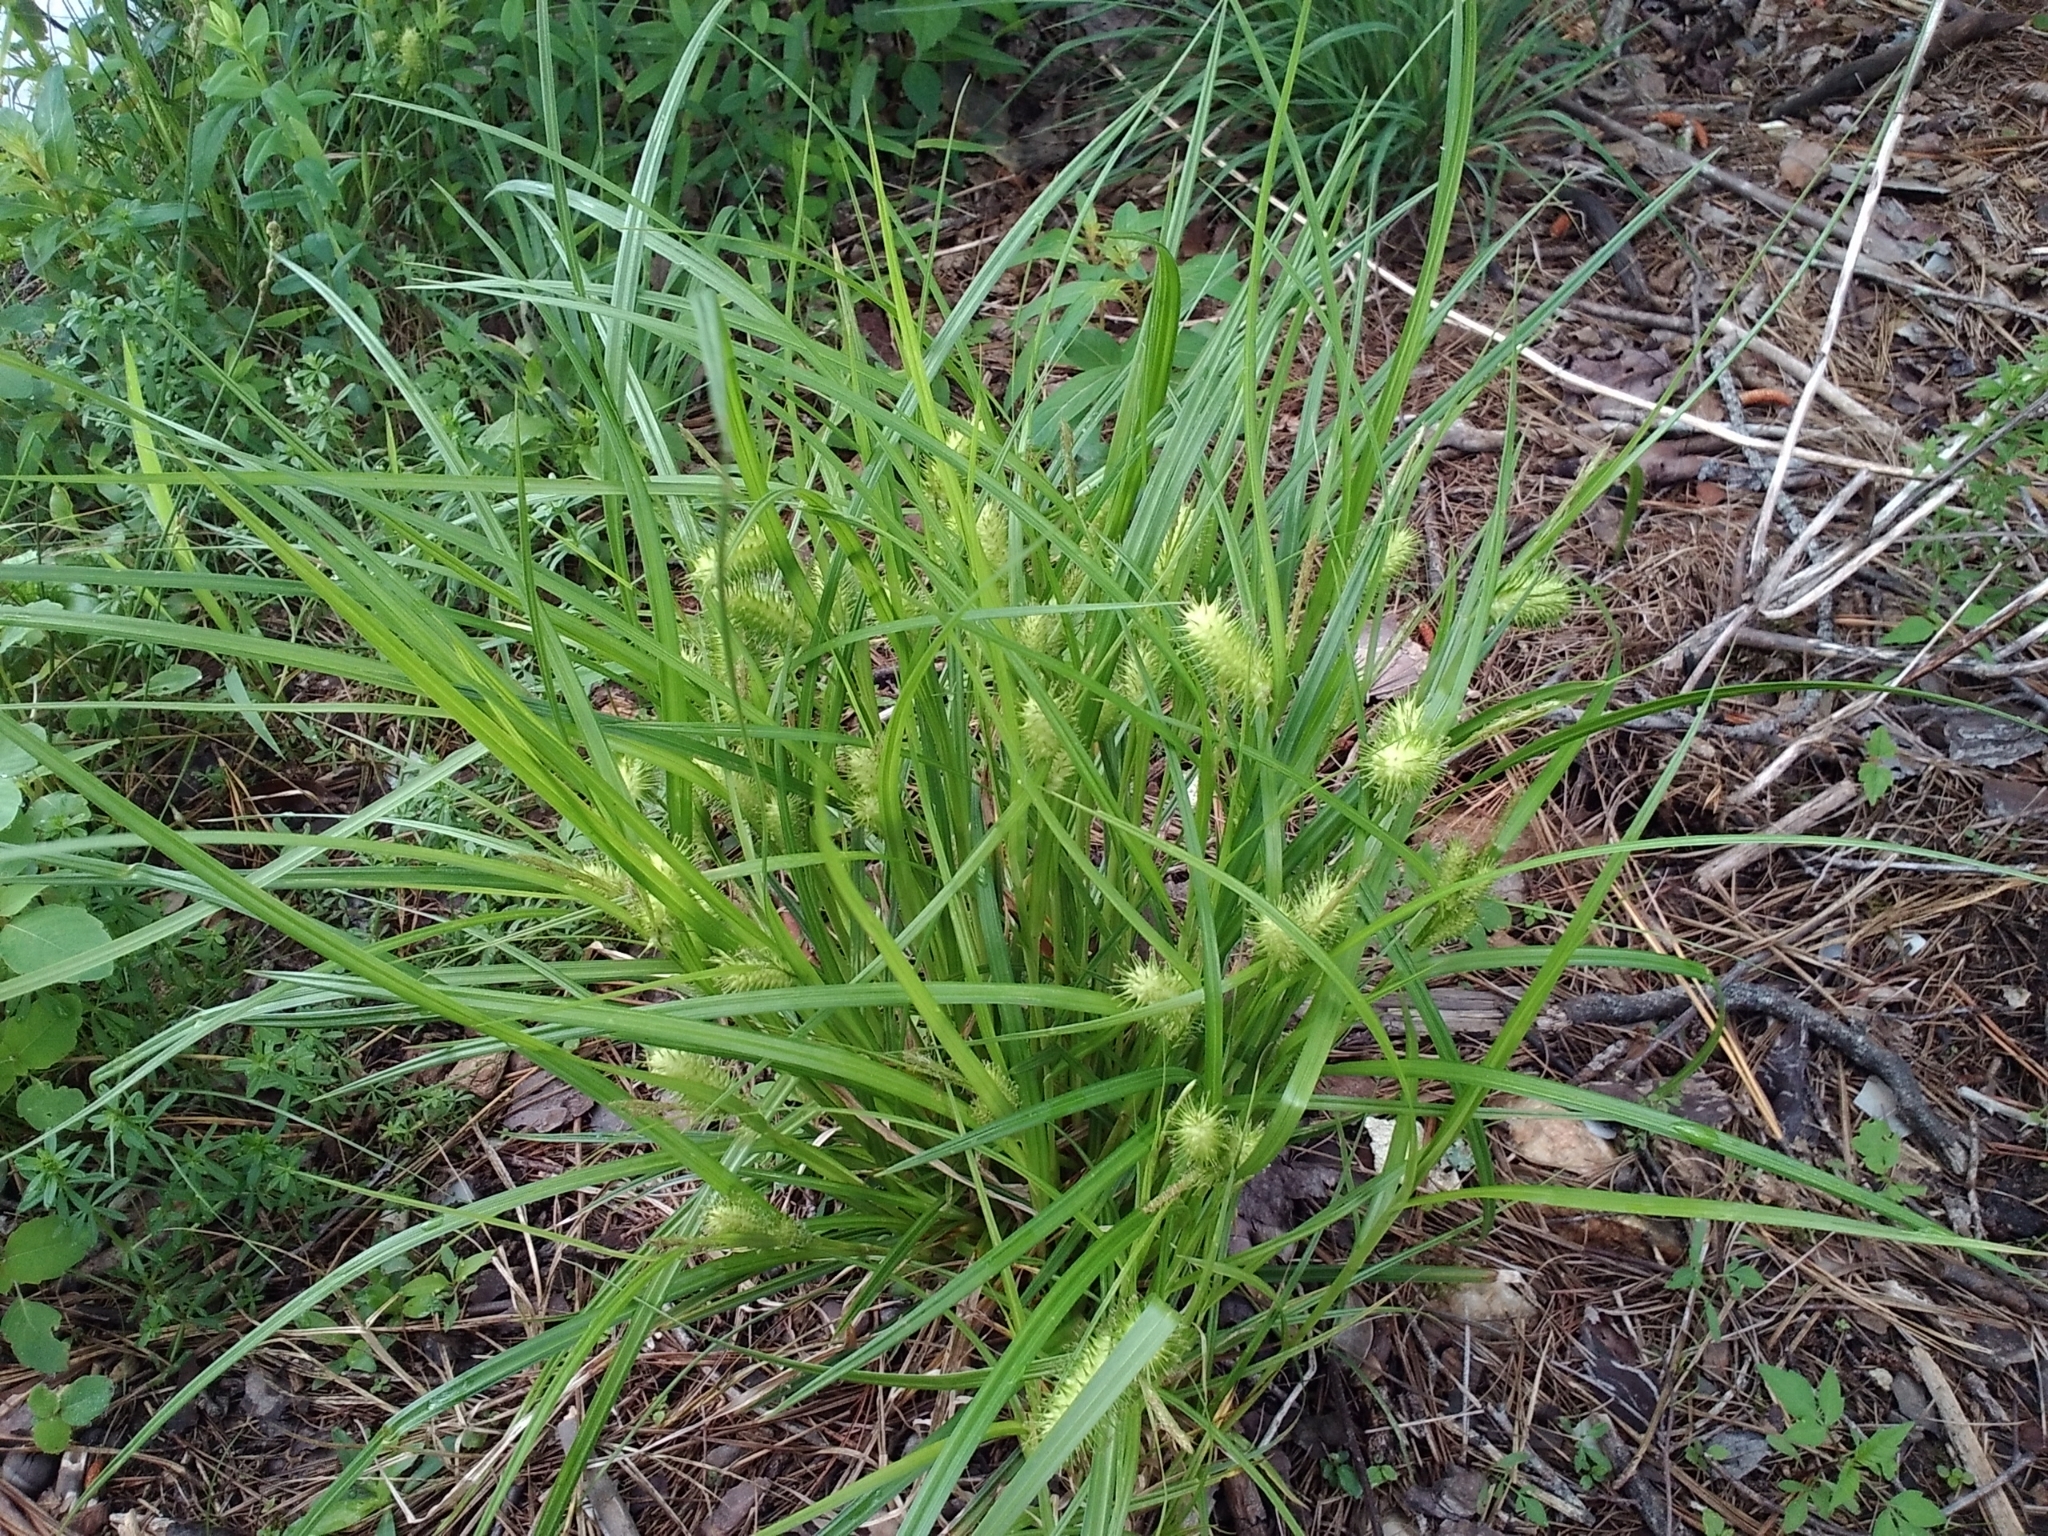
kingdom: Plantae
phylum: Tracheophyta
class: Liliopsida
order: Poales
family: Cyperaceae
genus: Carex
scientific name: Carex lurida
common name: Sallow sedge
